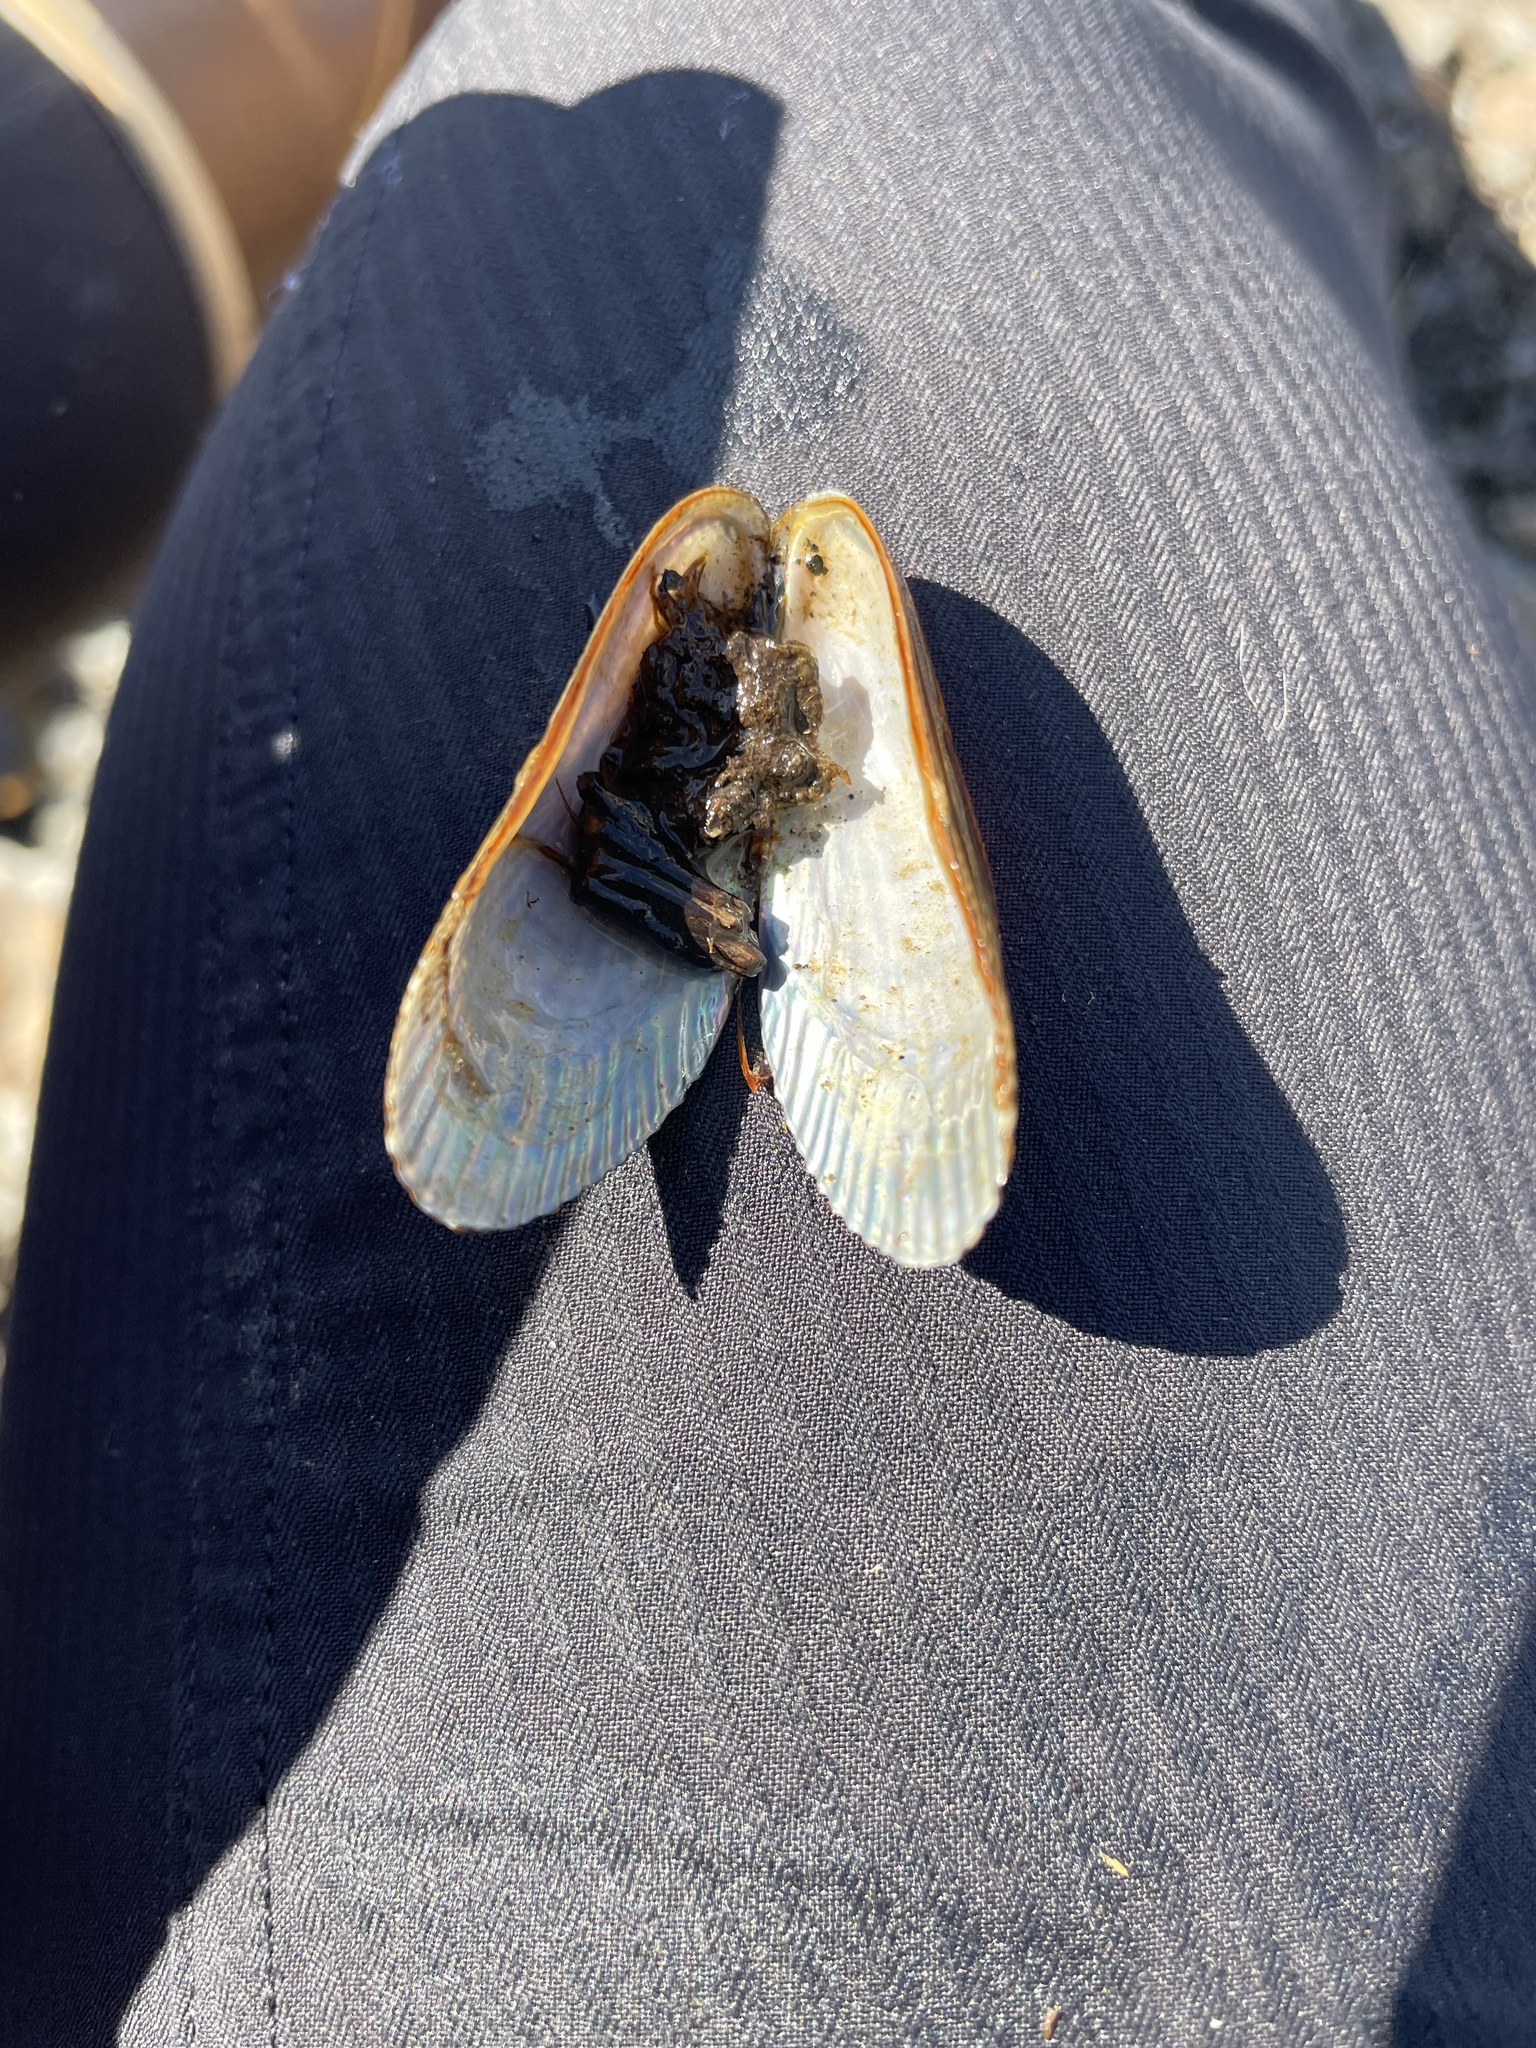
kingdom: Animalia
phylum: Mollusca
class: Bivalvia
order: Mytilida
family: Mytilidae
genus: Geukensia
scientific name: Geukensia demissa
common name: Ribbed mussel
